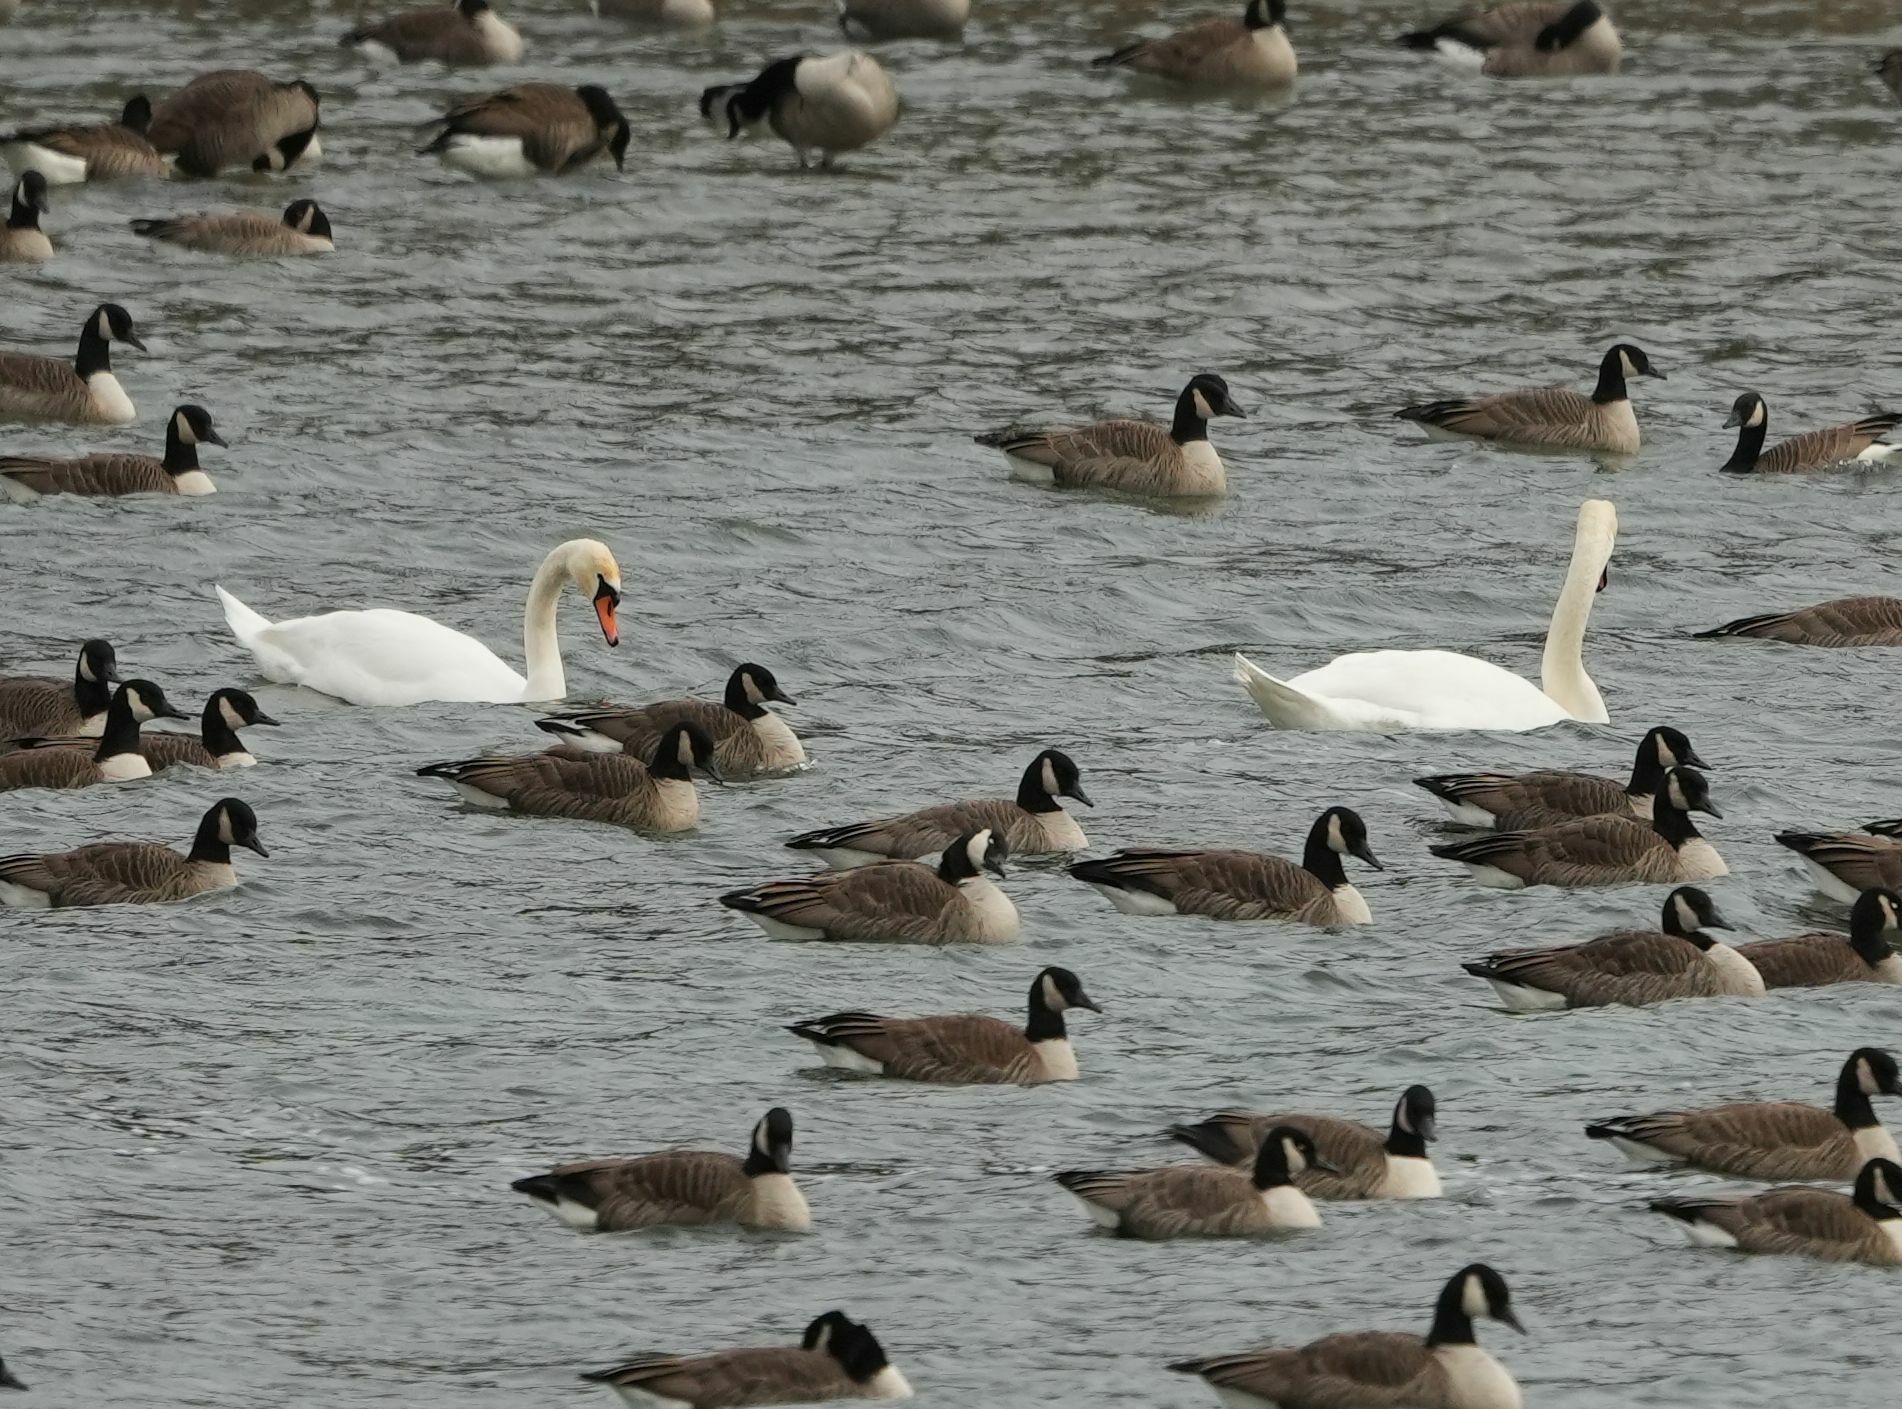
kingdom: Animalia
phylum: Chordata
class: Aves
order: Anseriformes
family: Anatidae
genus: Cygnus
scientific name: Cygnus olor
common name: Mute swan
